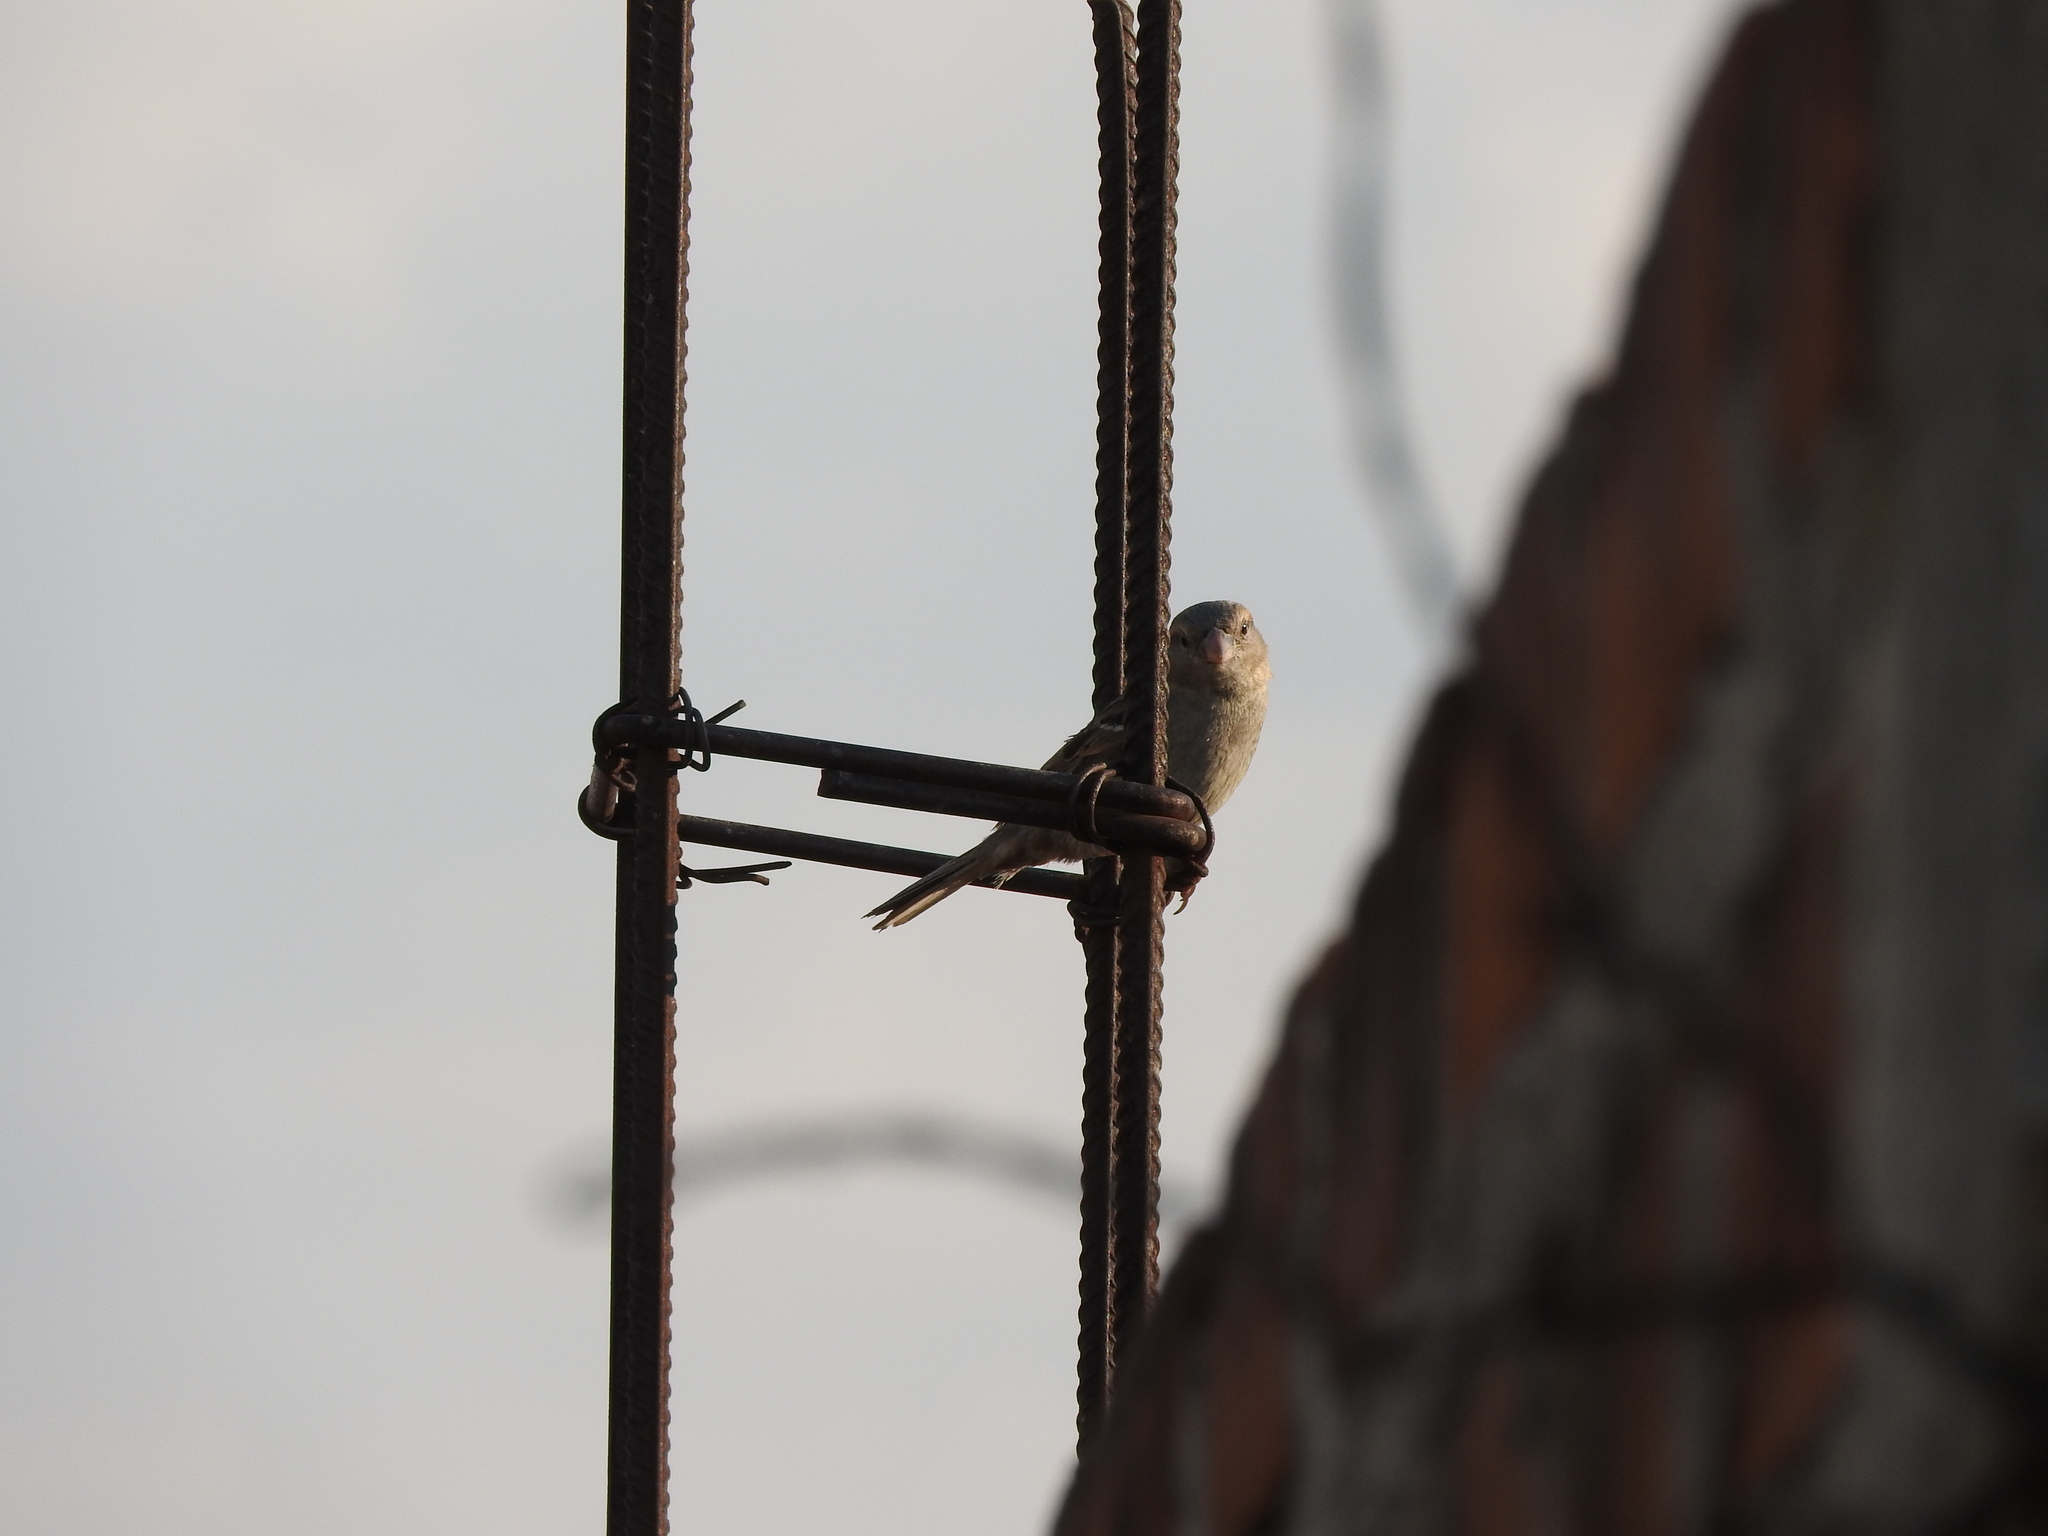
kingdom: Animalia
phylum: Chordata
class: Aves
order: Passeriformes
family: Passeridae
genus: Passer
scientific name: Passer domesticus
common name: House sparrow
